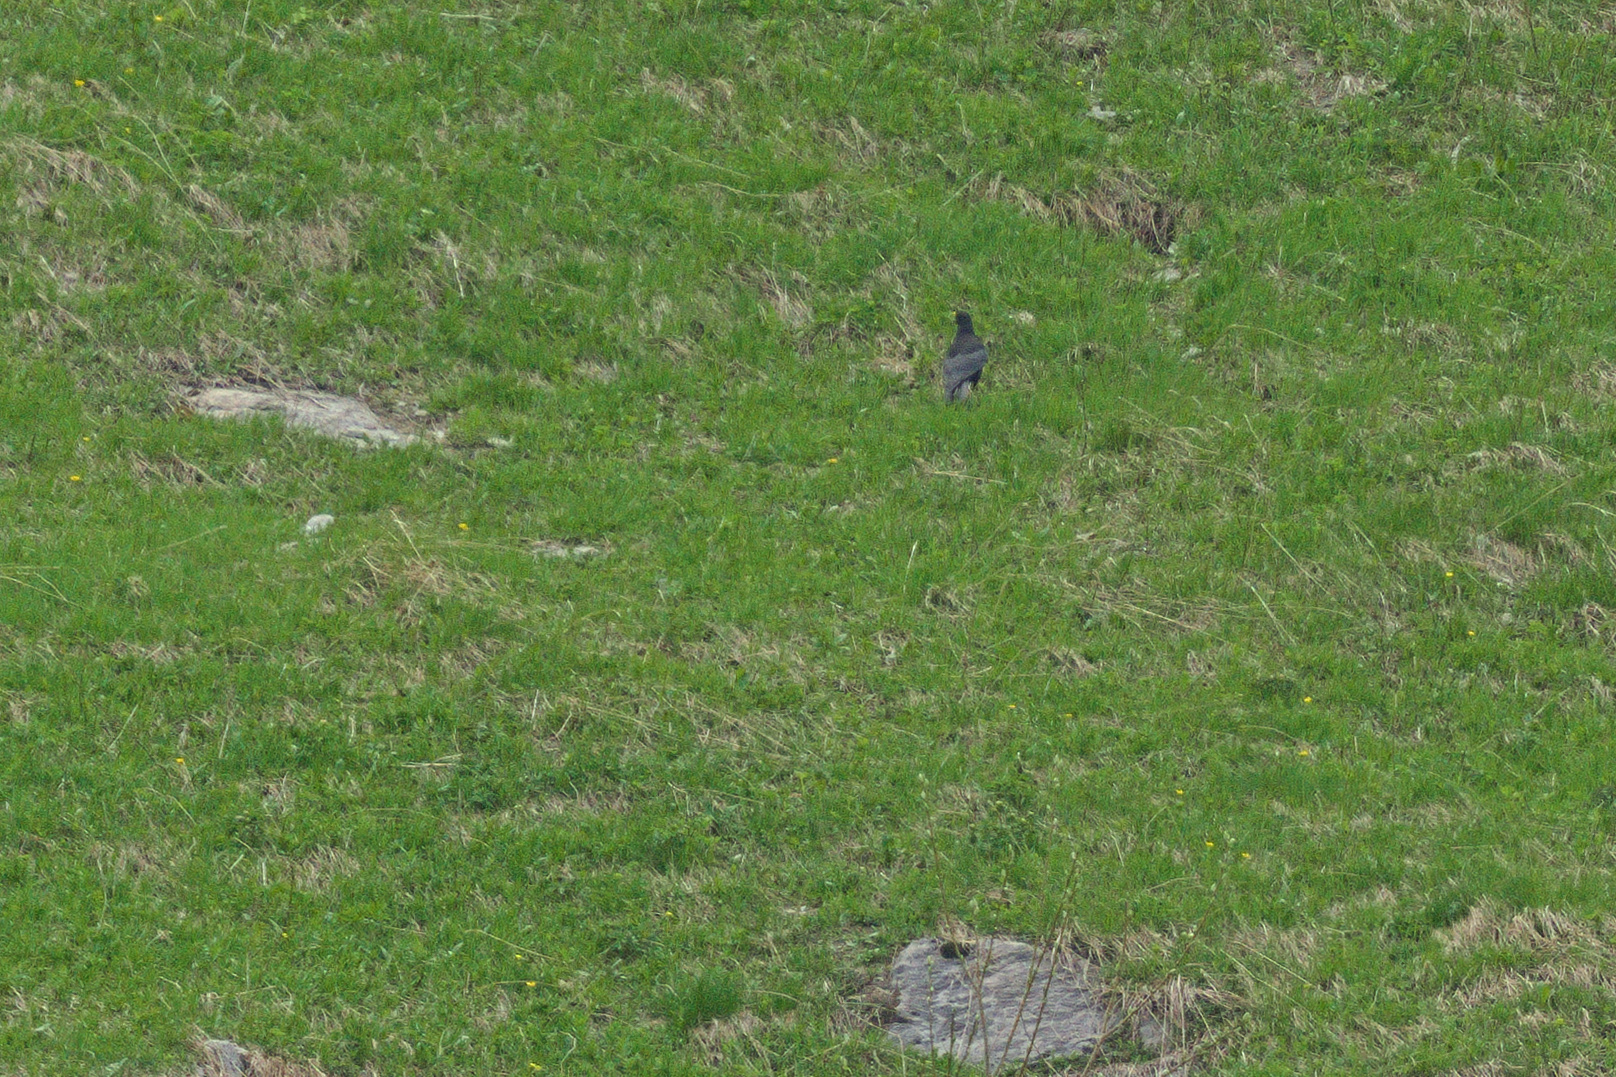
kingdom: Animalia
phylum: Chordata
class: Aves
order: Passeriformes
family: Corvidae
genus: Pyrrhocorax
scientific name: Pyrrhocorax graculus
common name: Alpine chough
